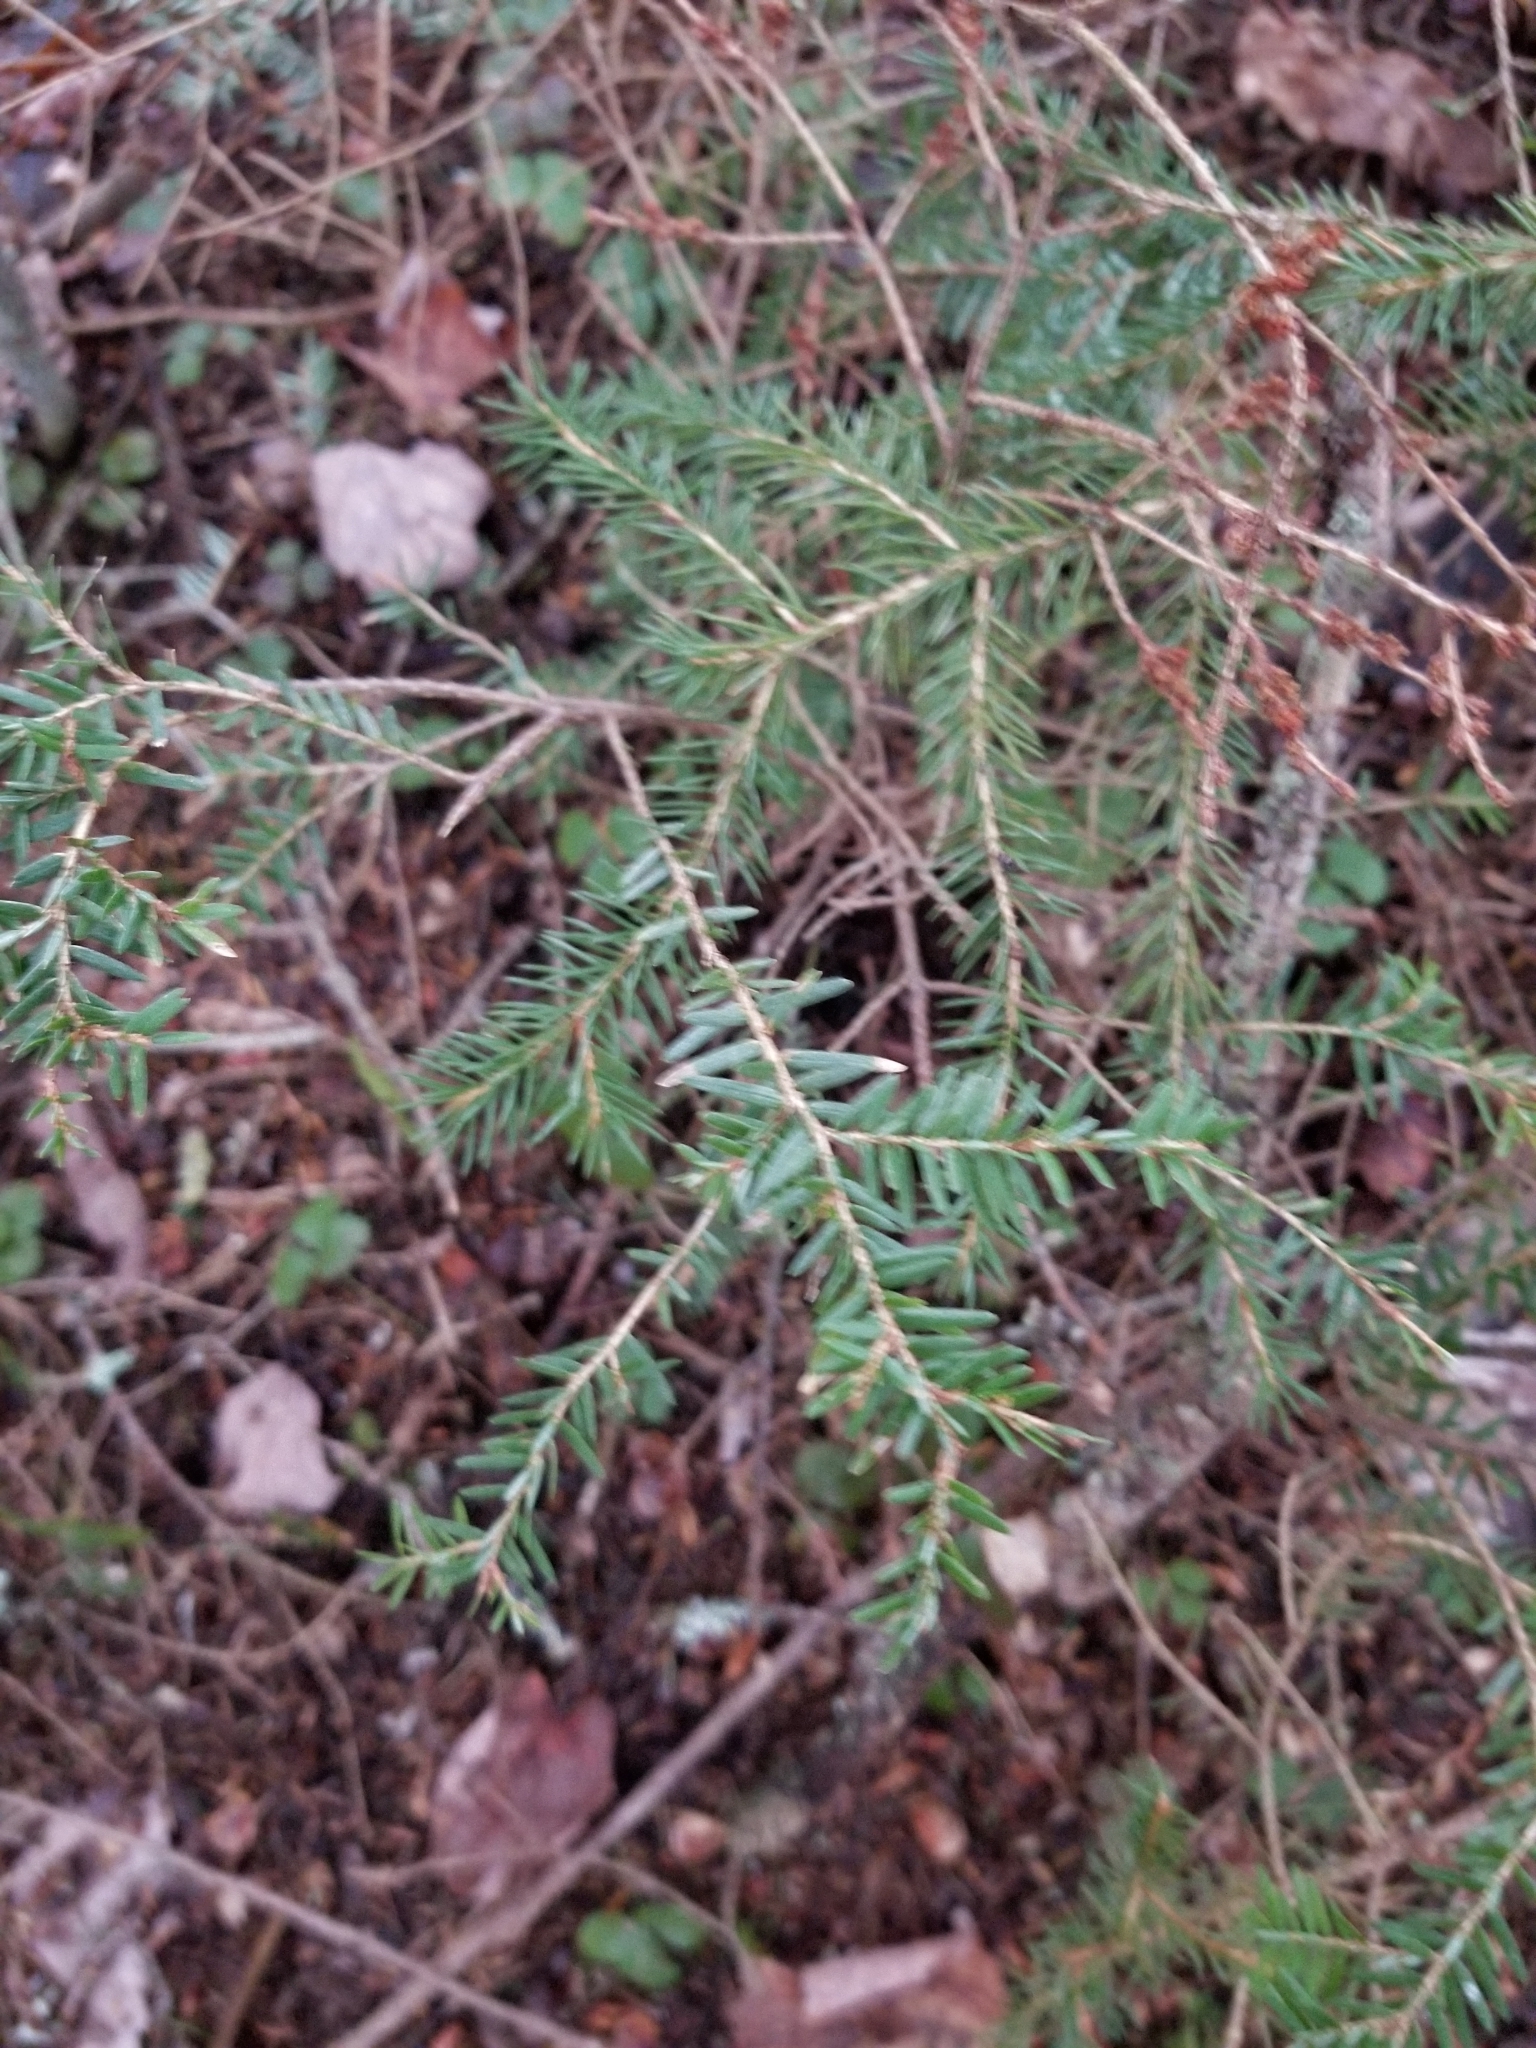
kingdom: Plantae
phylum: Tracheophyta
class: Pinopsida
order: Pinales
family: Pinaceae
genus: Tsuga
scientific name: Tsuga canadensis
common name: Eastern hemlock
